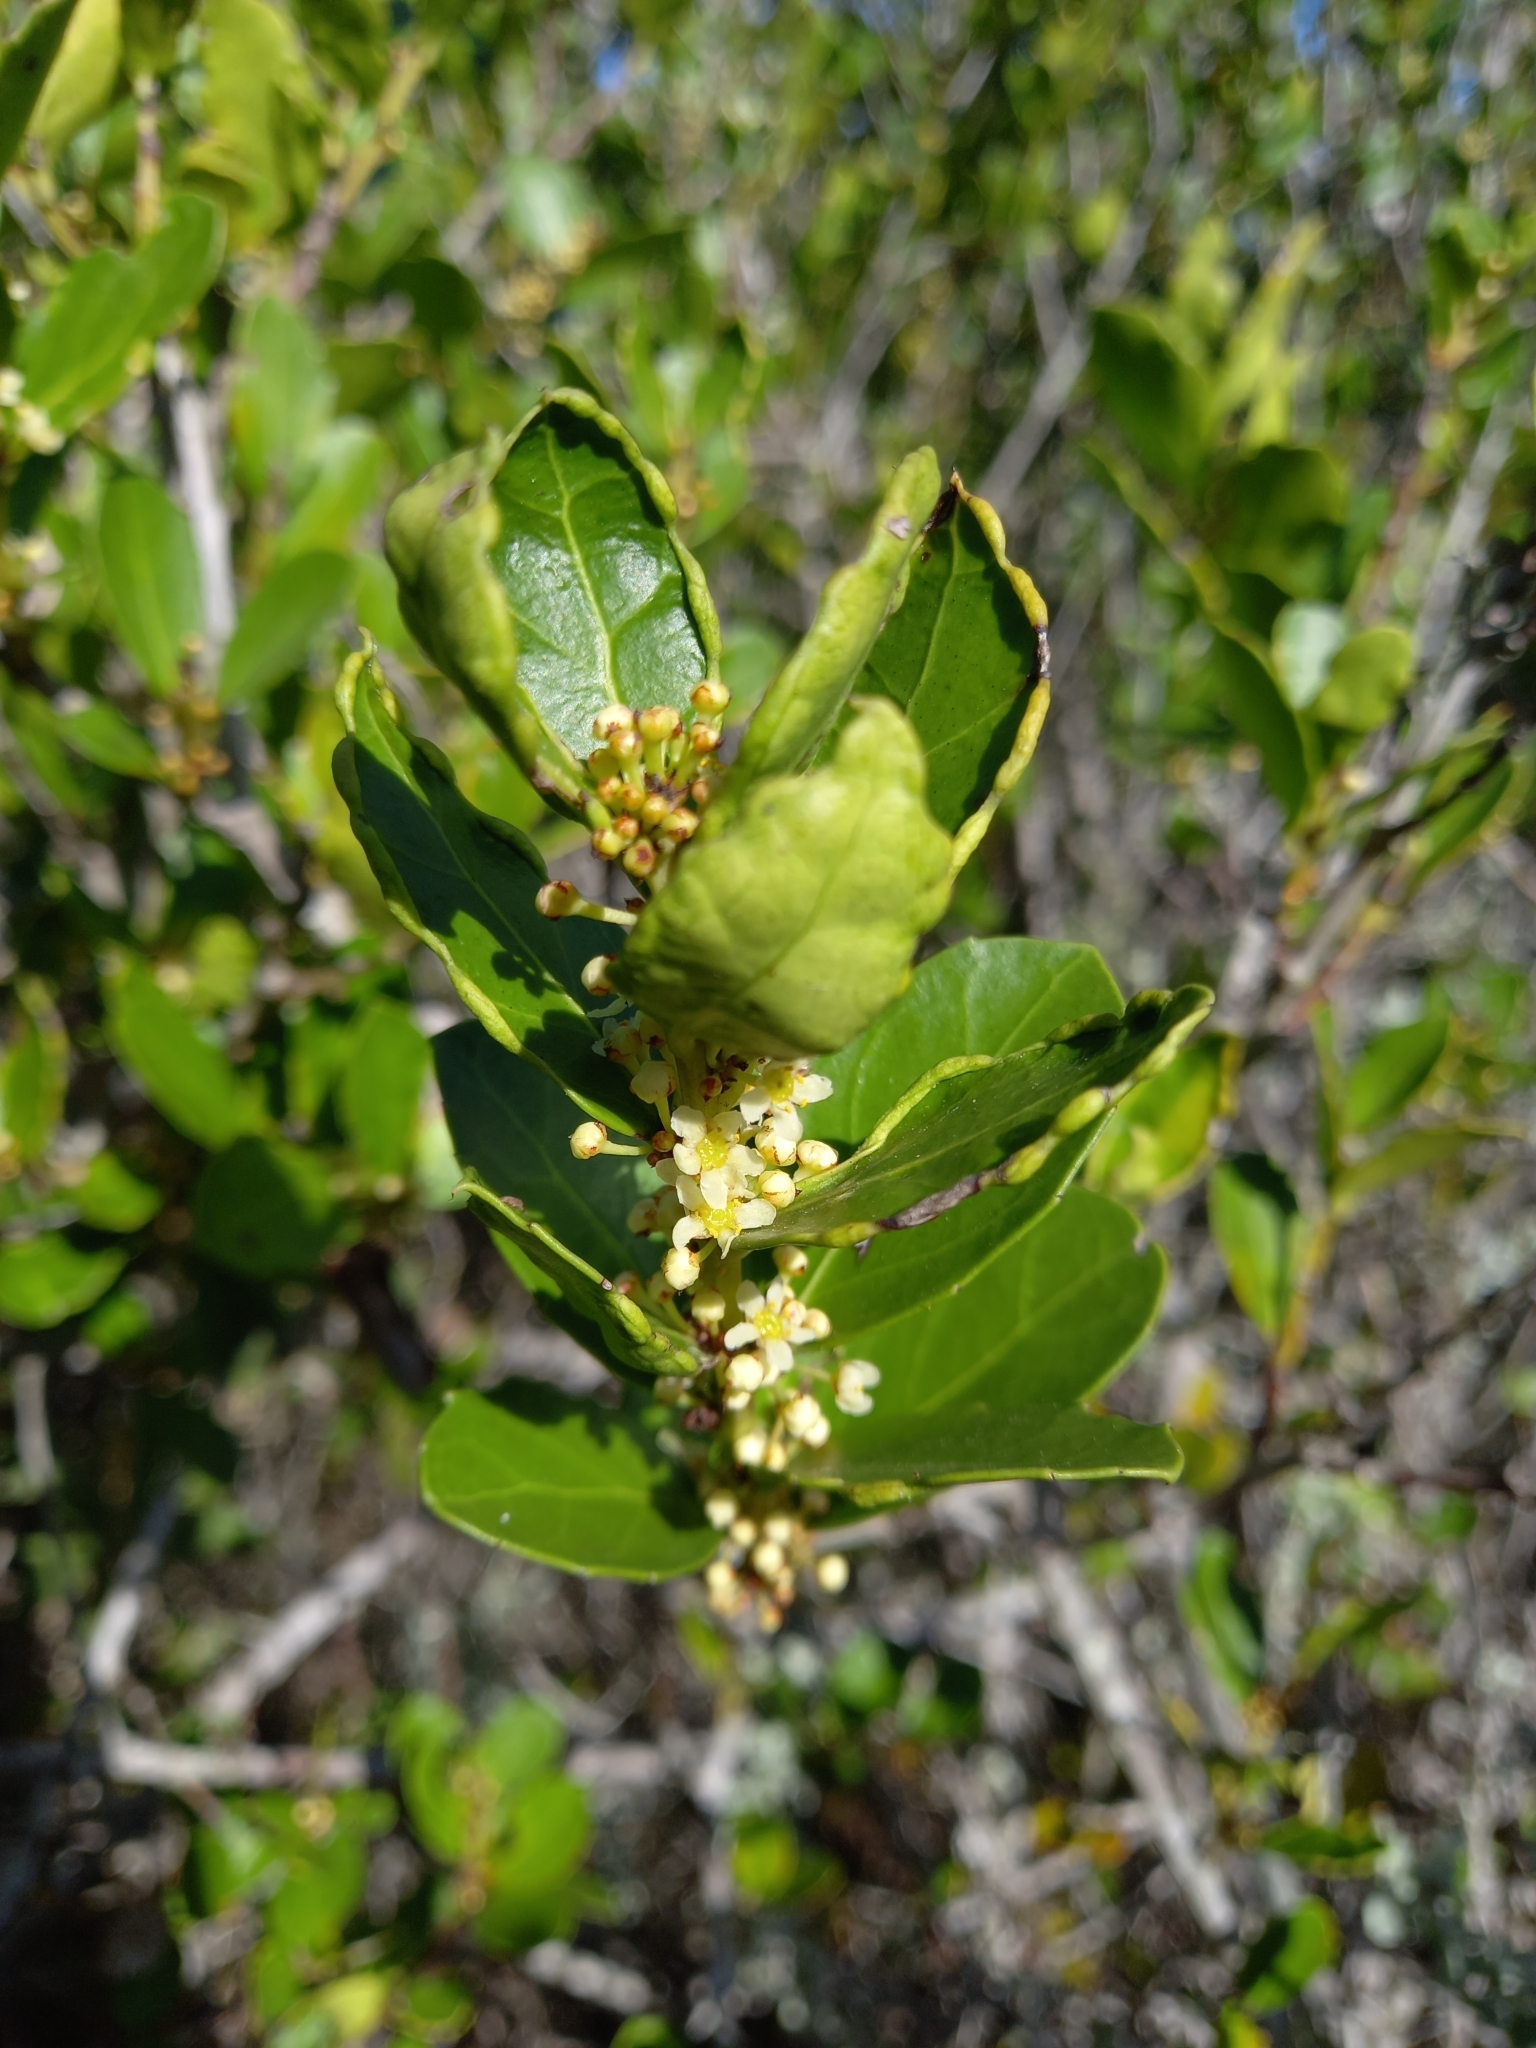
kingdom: Plantae
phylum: Tracheophyta
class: Magnoliopsida
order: Celastrales
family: Celastraceae
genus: Gymnosporia
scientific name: Gymnosporia procumbens
